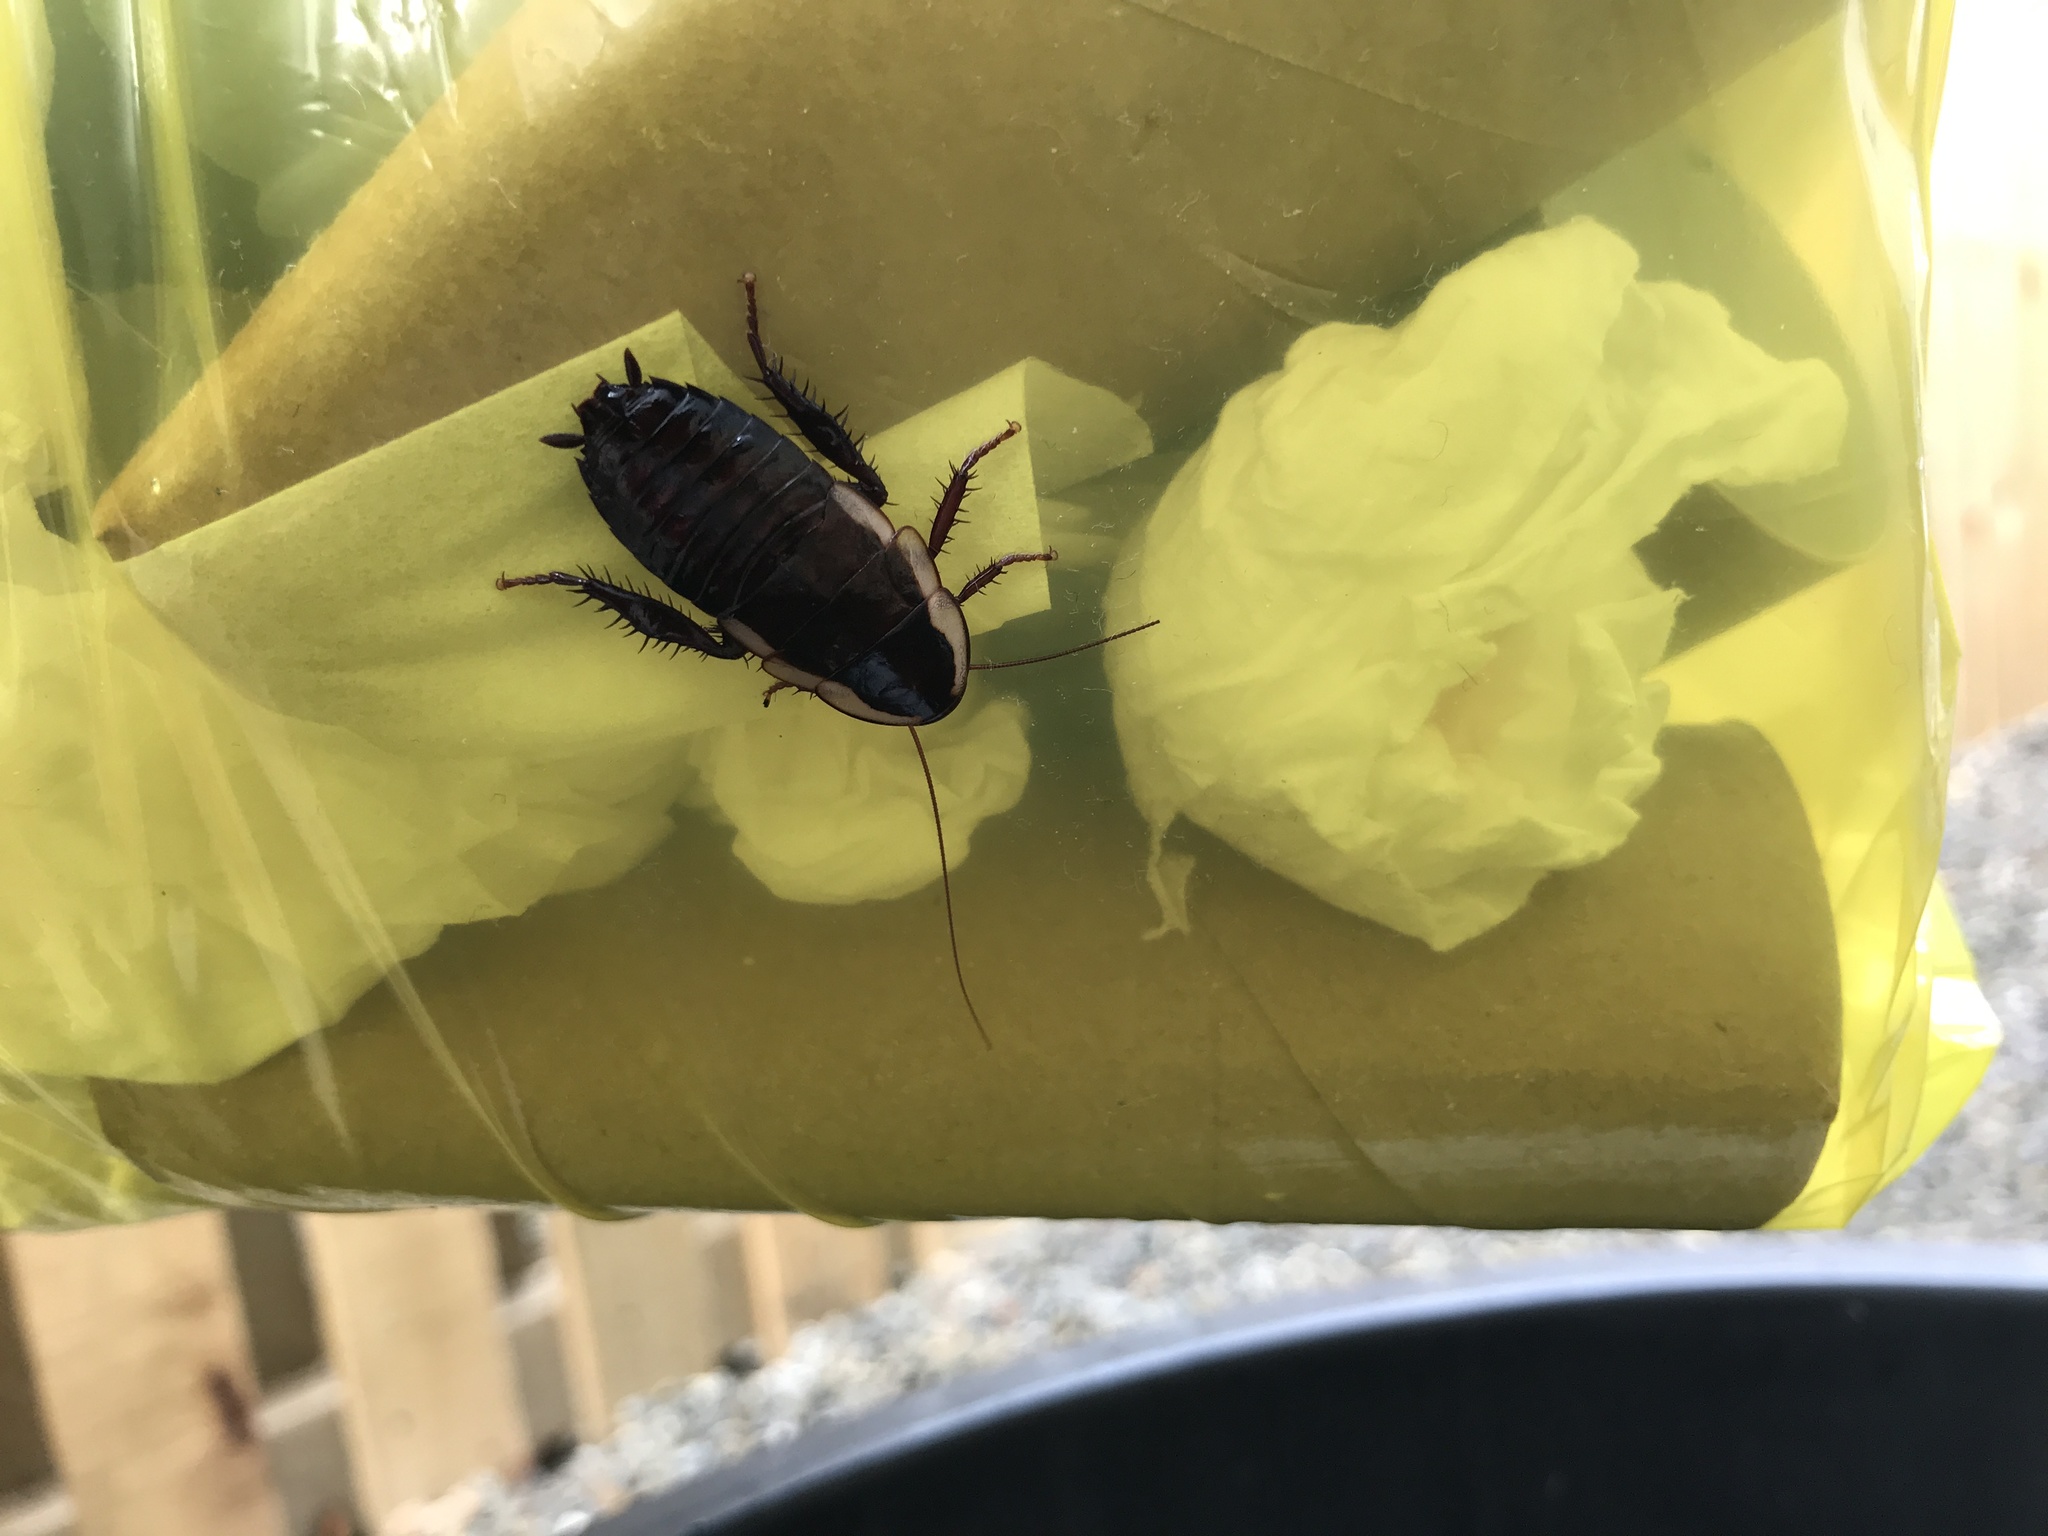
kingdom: Animalia
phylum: Arthropoda
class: Insecta
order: Blattodea
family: Blattidae
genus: Drymaplaneta
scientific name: Drymaplaneta semivitta
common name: Gisborne cockroach
